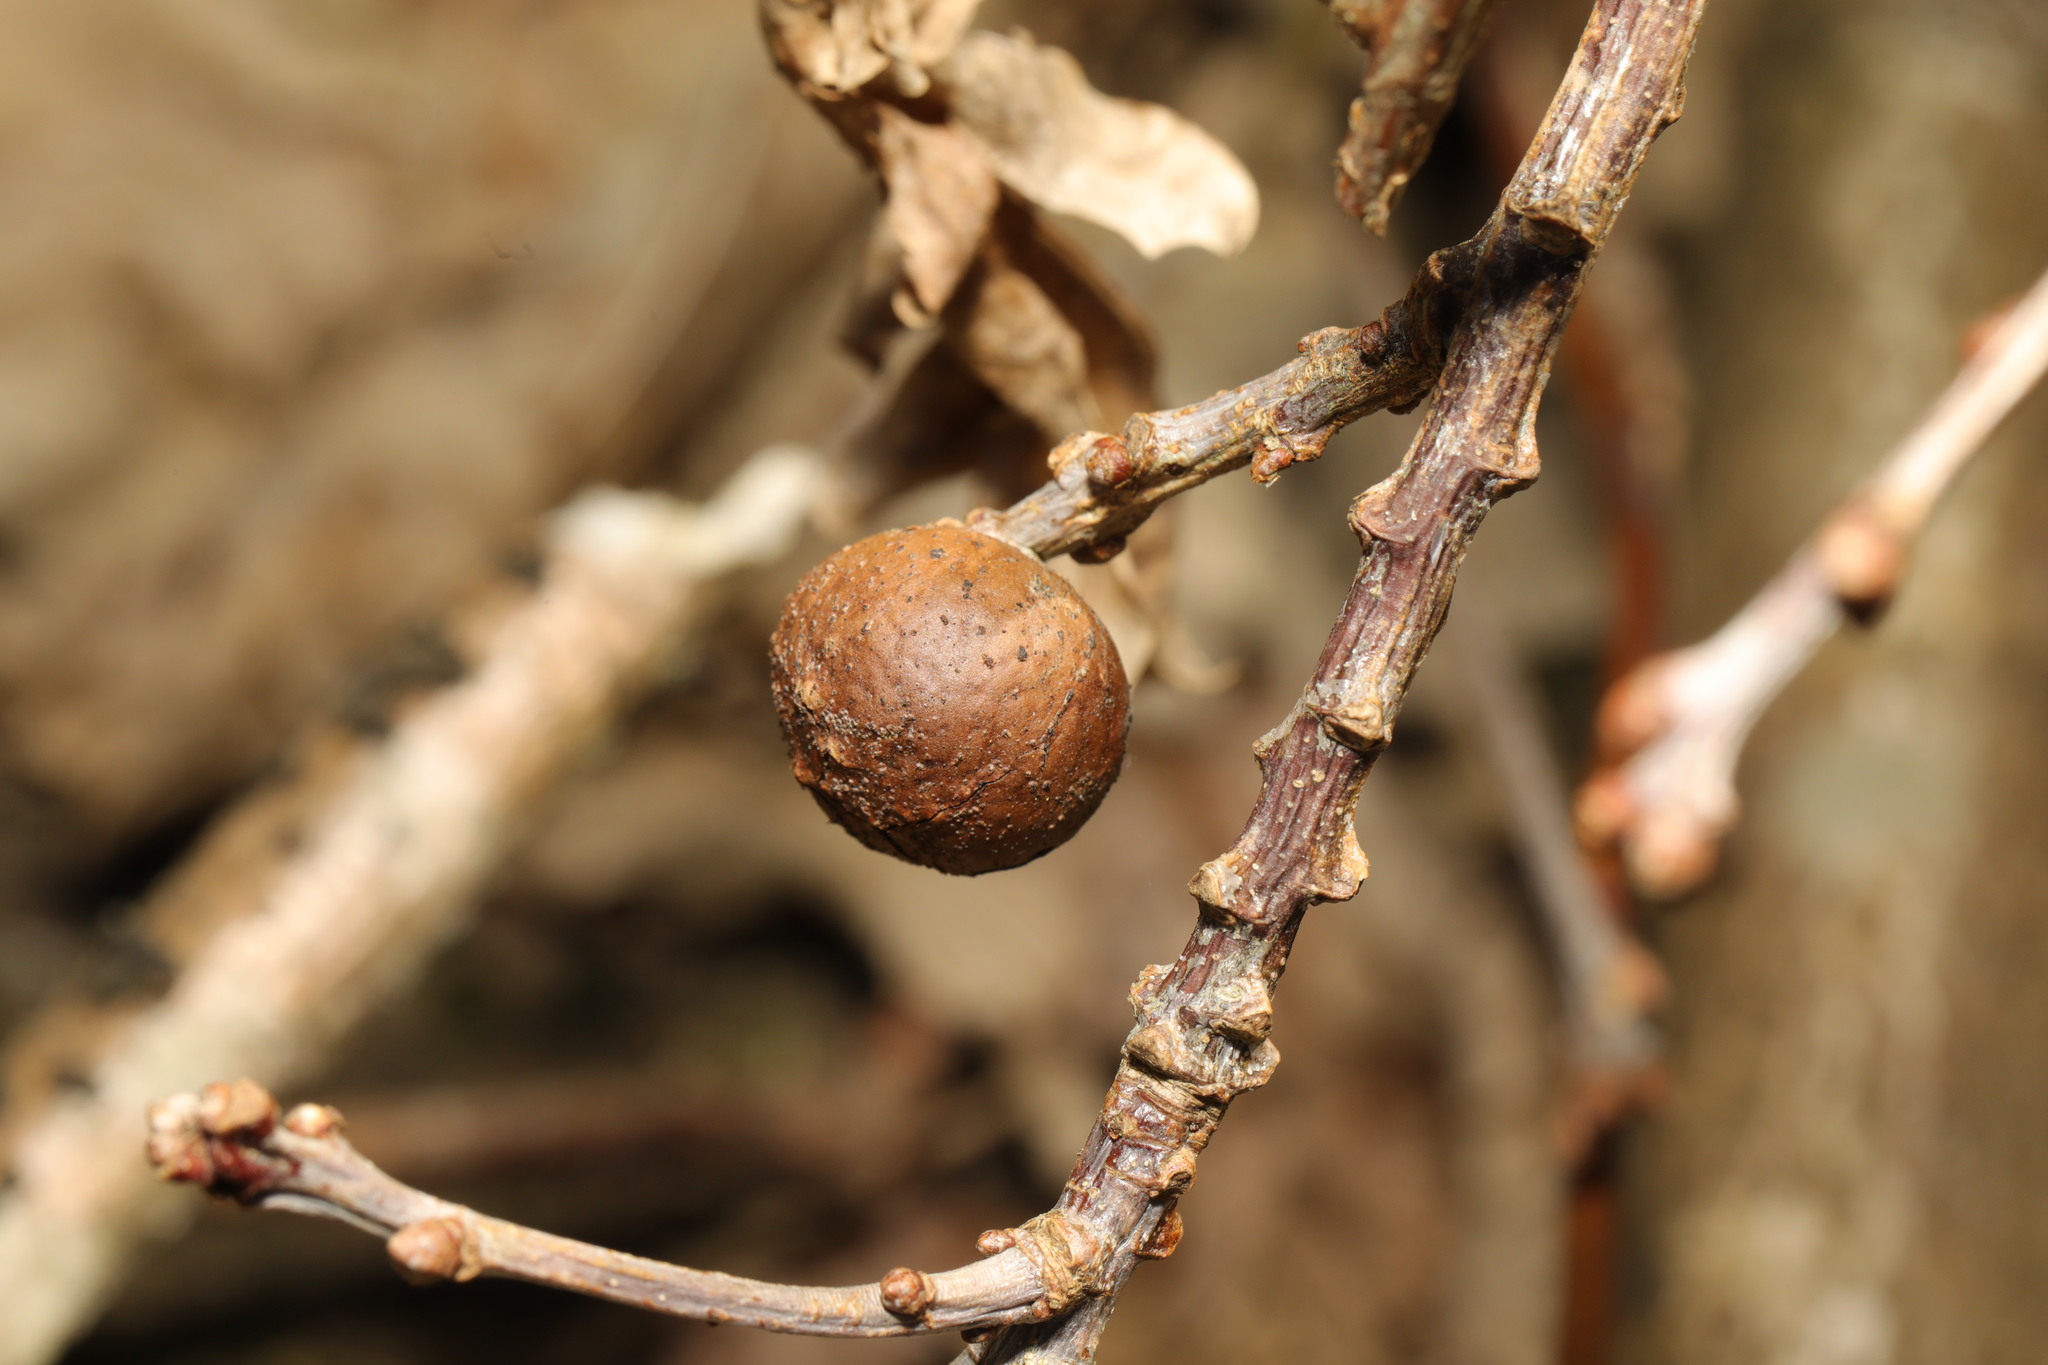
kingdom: Animalia
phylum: Arthropoda
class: Insecta
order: Hymenoptera
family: Cynipidae
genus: Andricus
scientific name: Andricus kollari
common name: Marble gall
